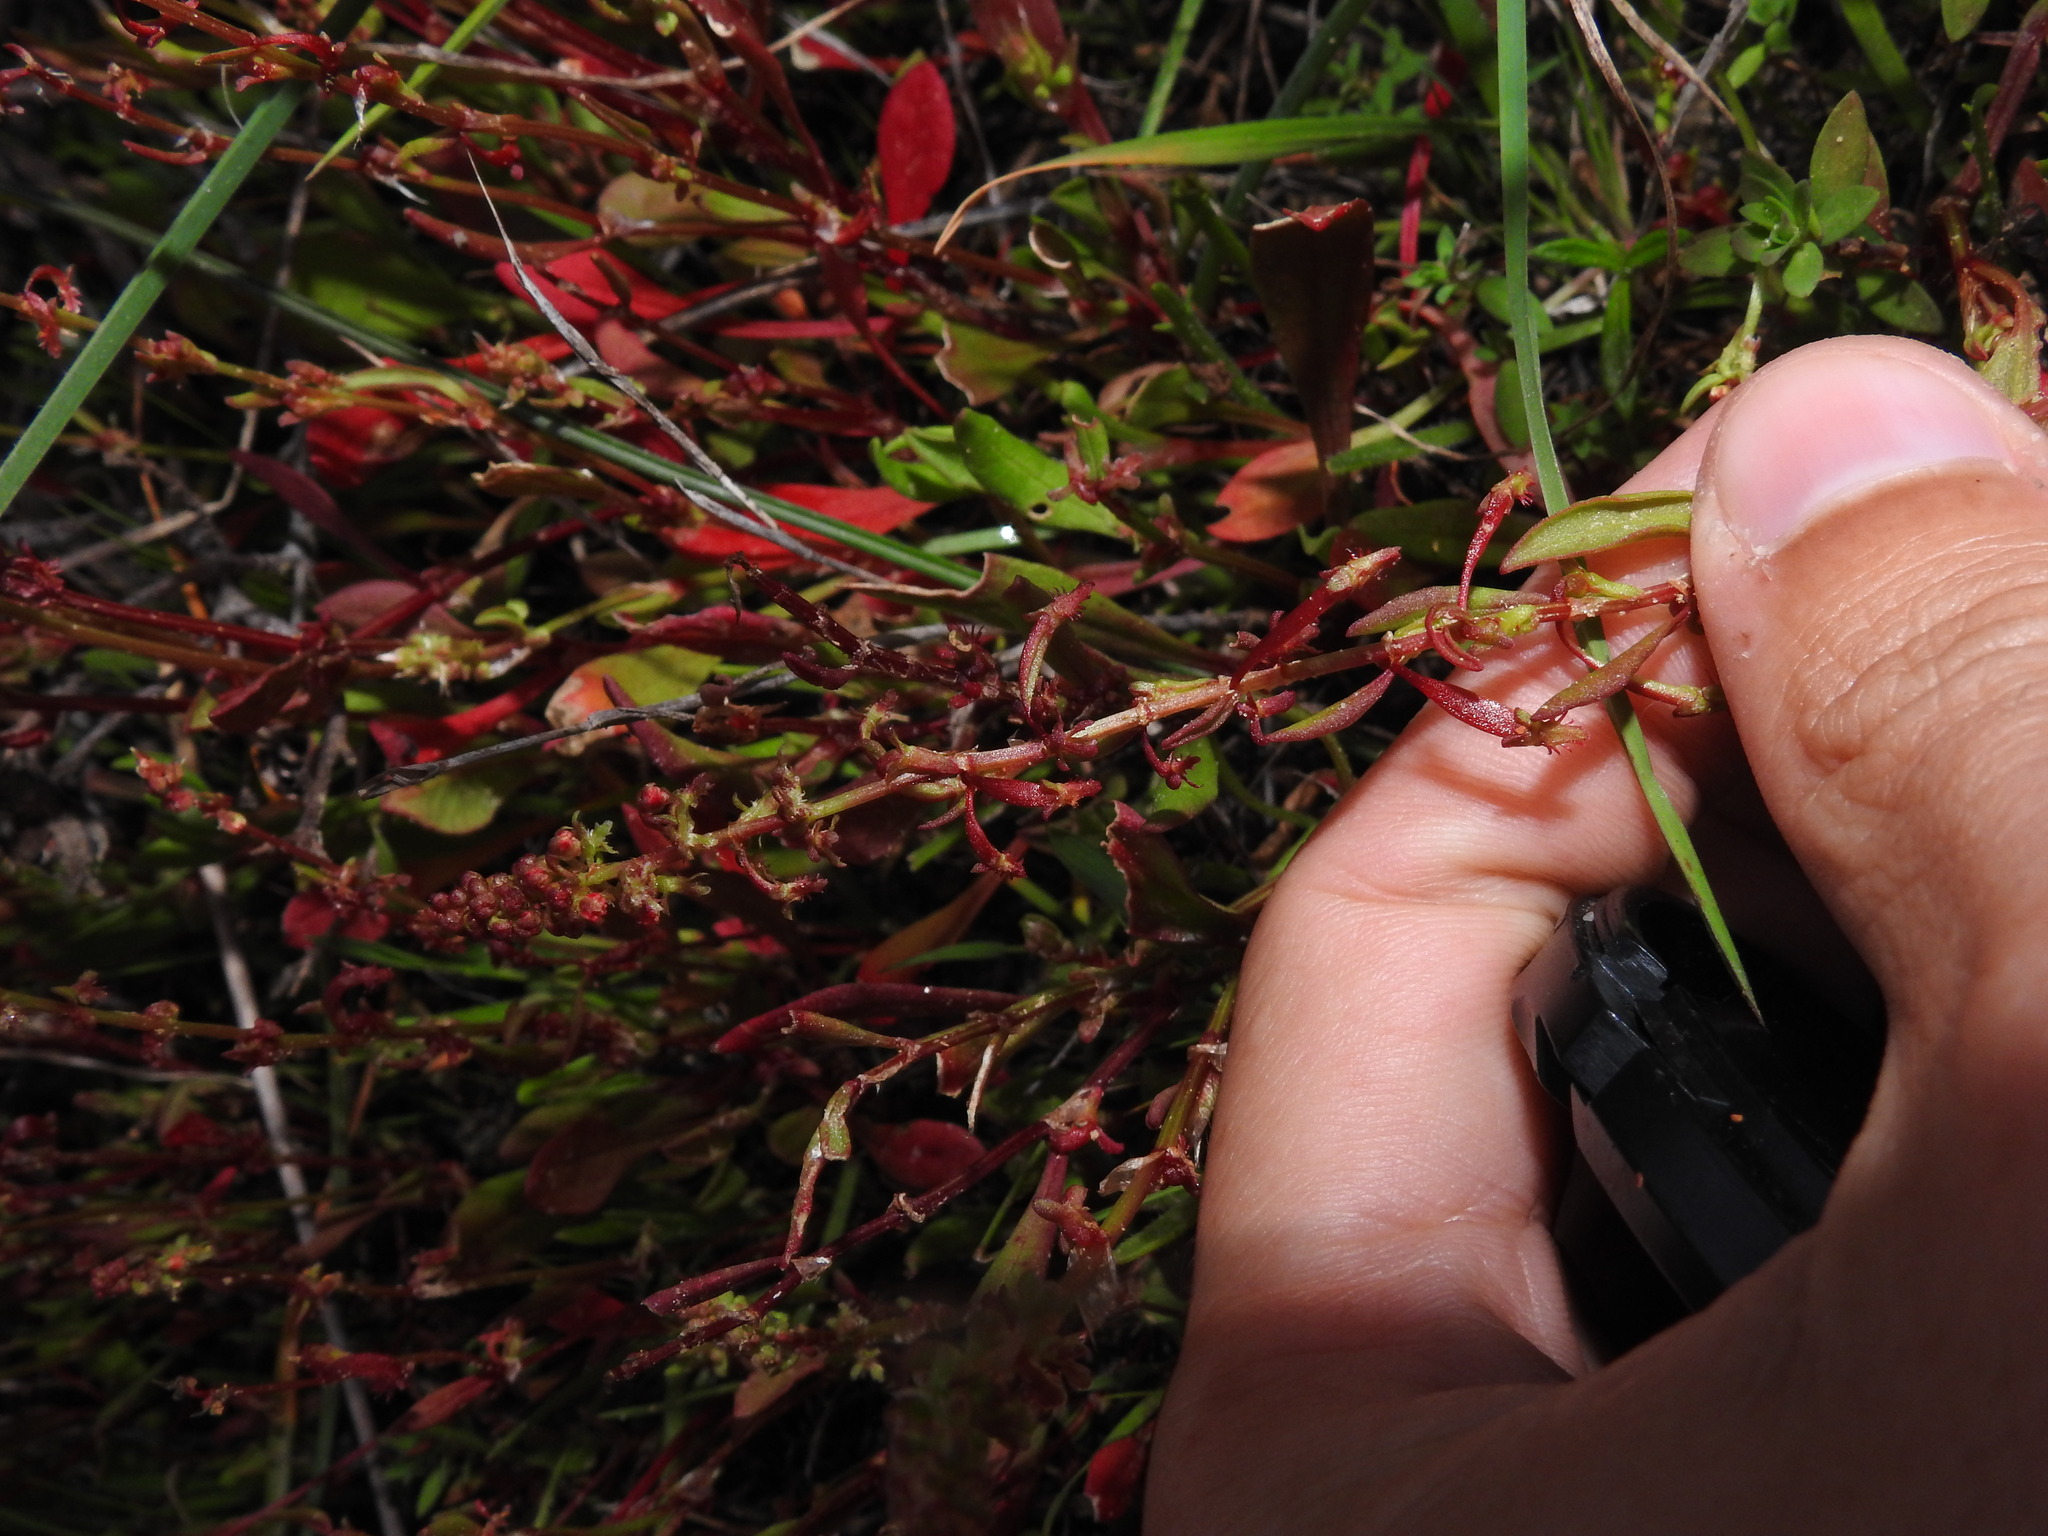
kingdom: Plantae
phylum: Tracheophyta
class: Magnoliopsida
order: Caryophyllales
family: Polygonaceae
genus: Rumex
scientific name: Rumex bucephalophorus
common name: Red dock
